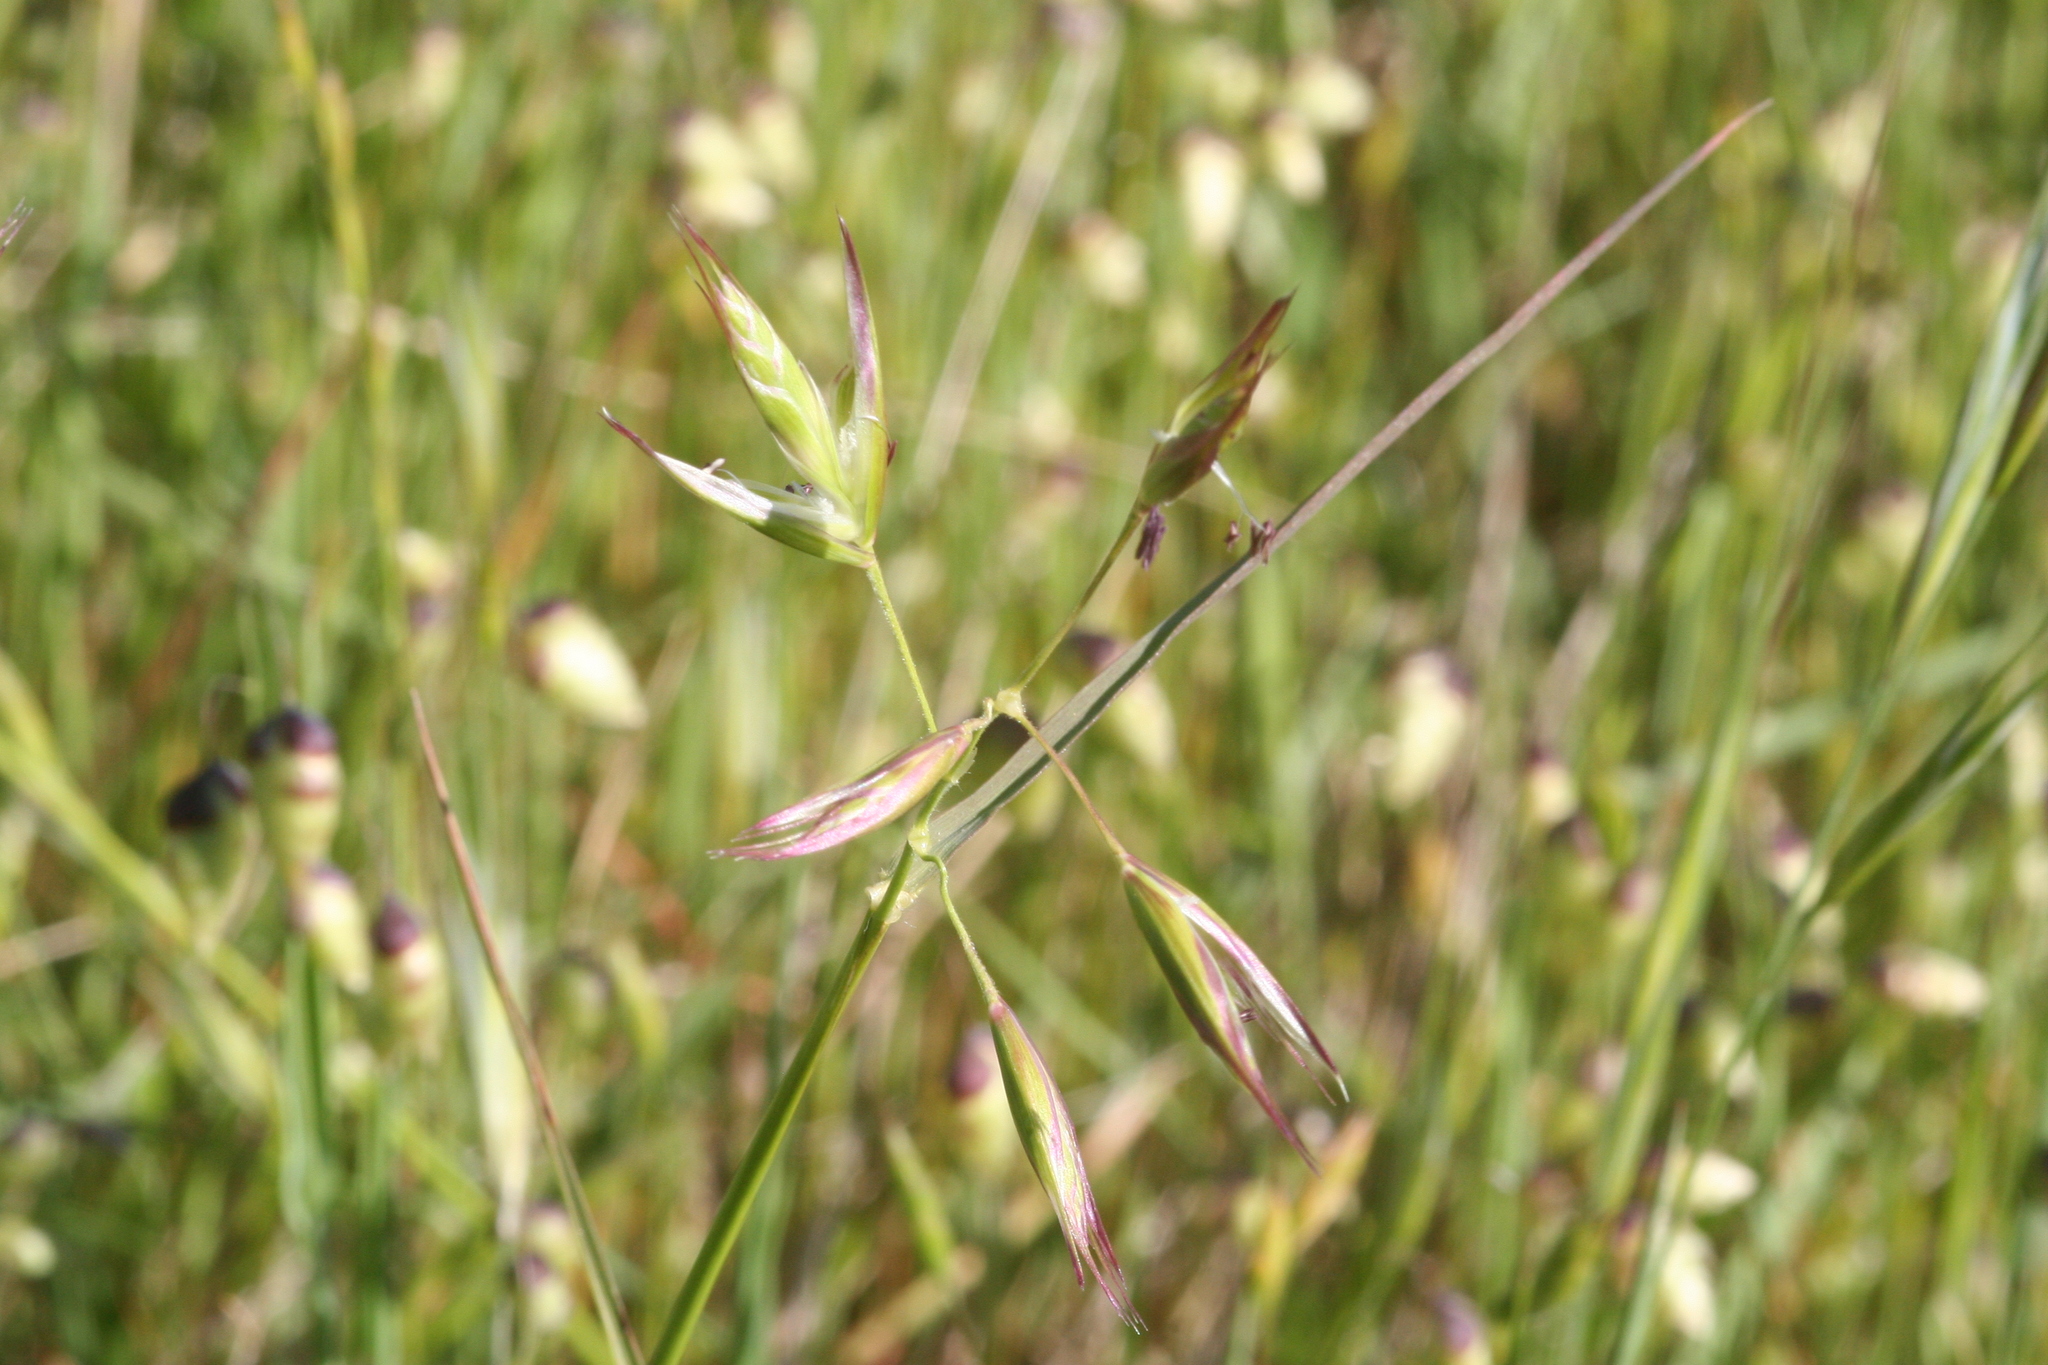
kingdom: Plantae
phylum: Tracheophyta
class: Liliopsida
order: Poales
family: Poaceae
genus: Danthonia
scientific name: Danthonia californica
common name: California oat grass
